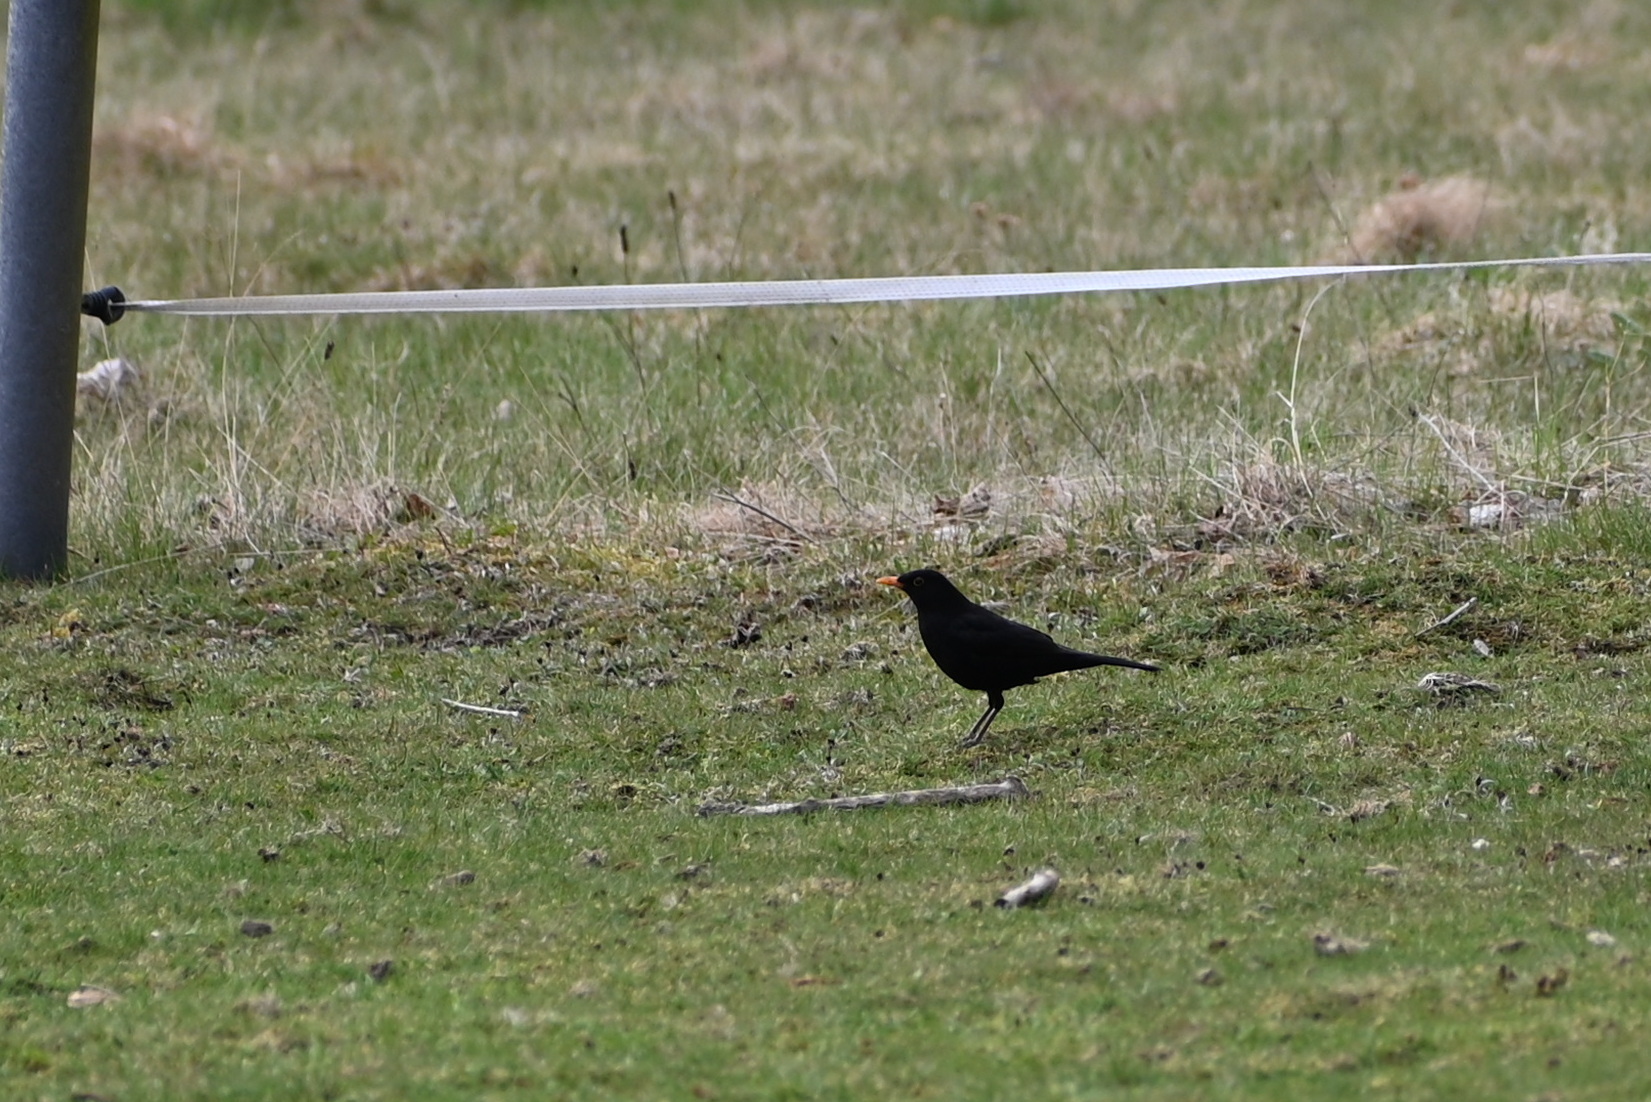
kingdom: Animalia
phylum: Chordata
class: Aves
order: Passeriformes
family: Turdidae
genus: Turdus
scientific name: Turdus merula
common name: Common blackbird
